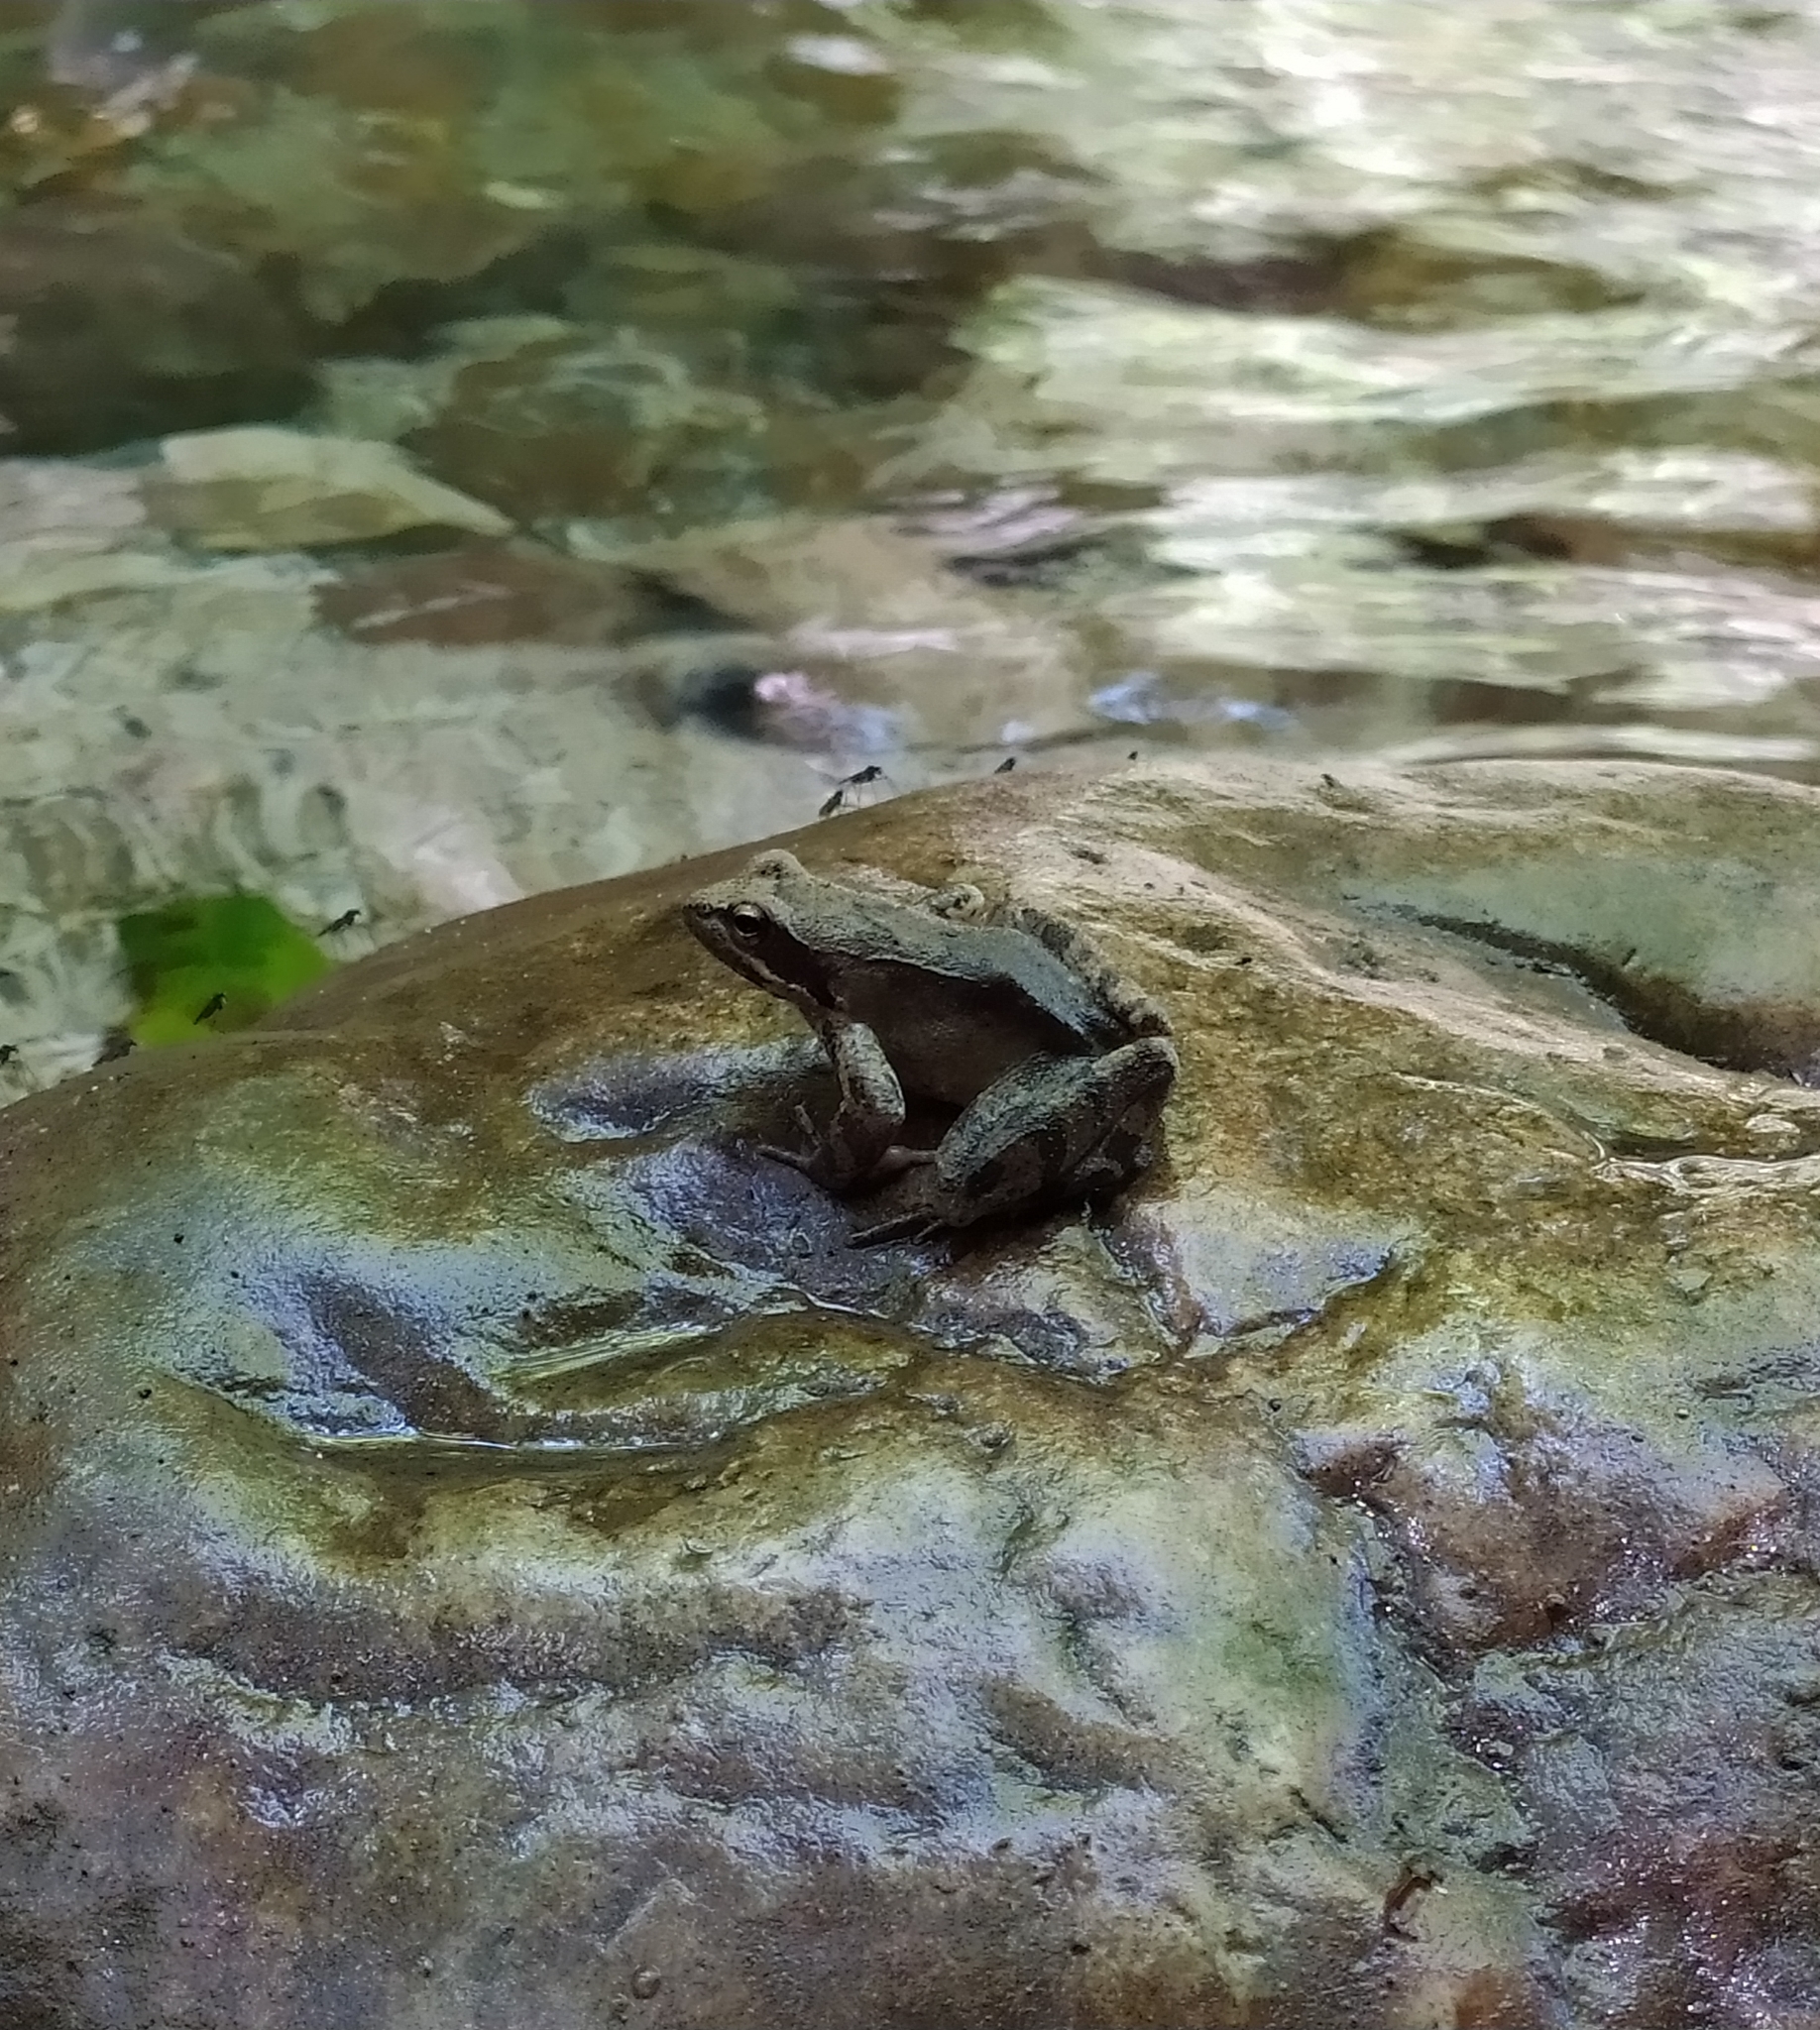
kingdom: Animalia
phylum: Chordata
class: Amphibia
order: Anura
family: Ranidae
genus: Rana
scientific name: Rana italica
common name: Italian stream frog
